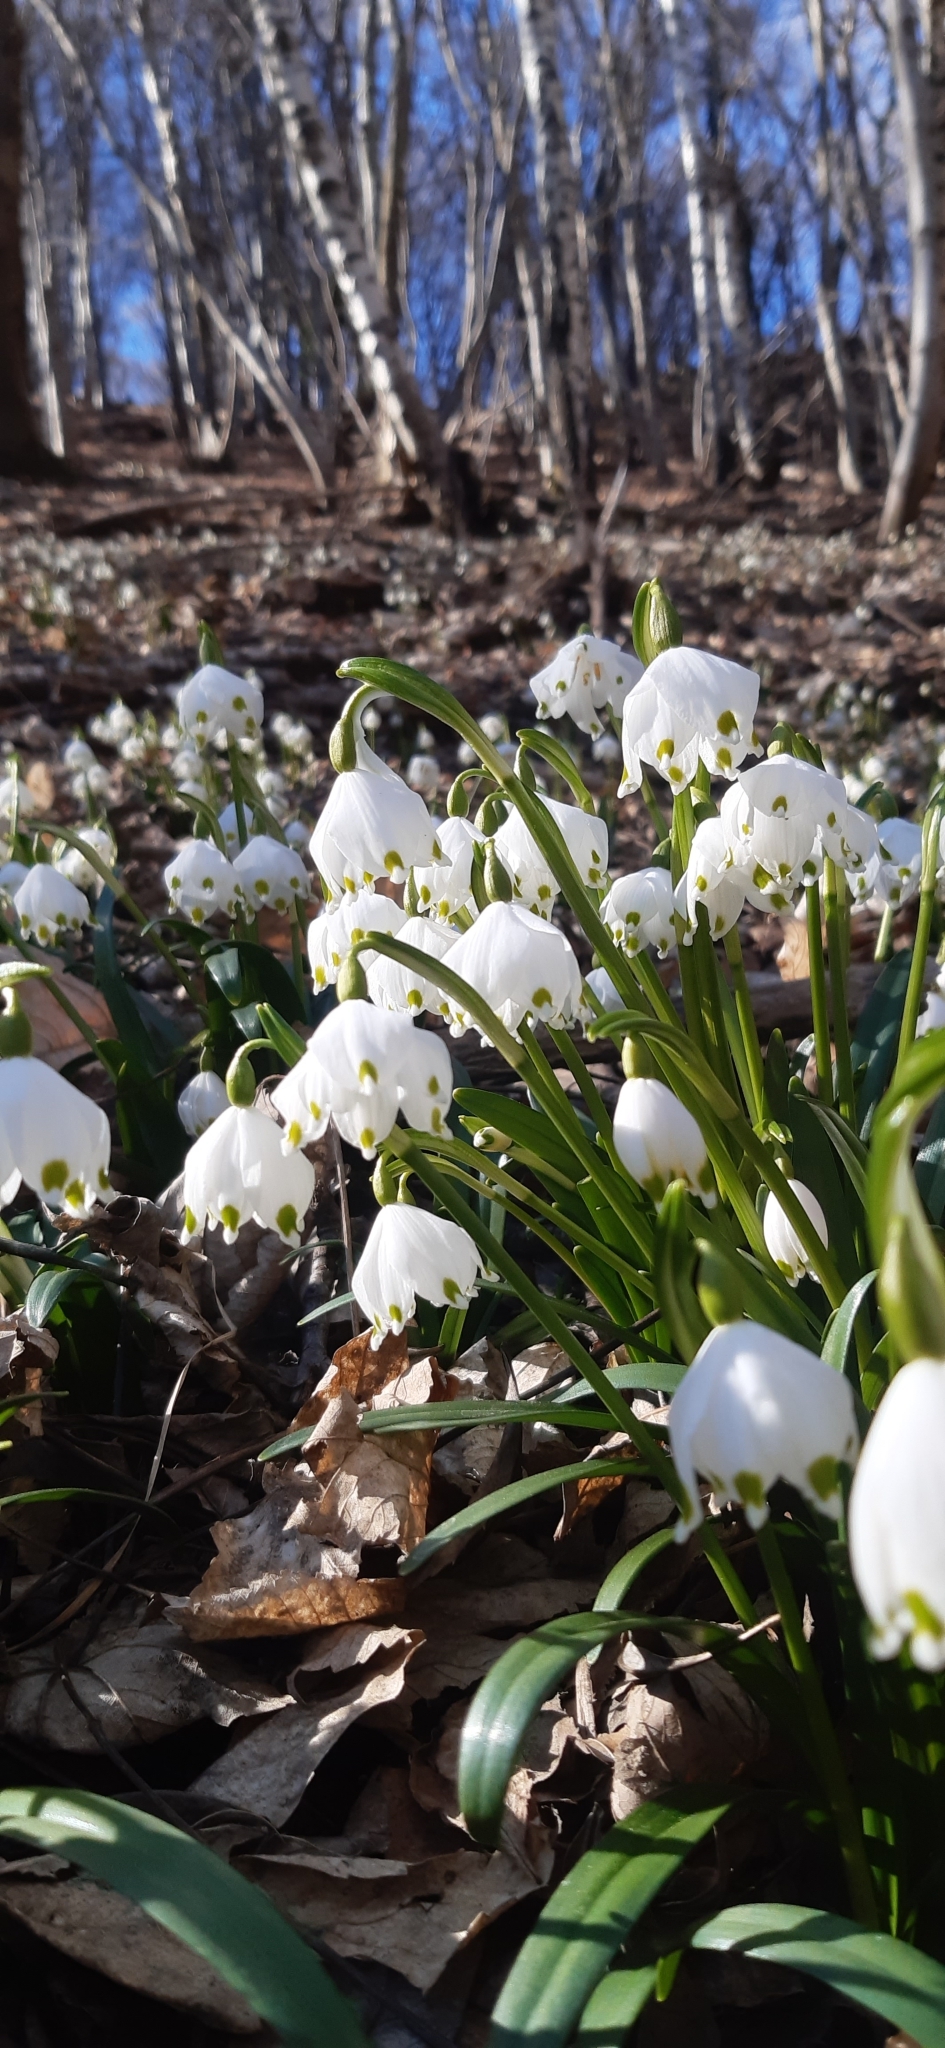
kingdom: Plantae
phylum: Tracheophyta
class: Liliopsida
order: Asparagales
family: Amaryllidaceae
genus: Leucojum
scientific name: Leucojum vernum
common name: Spring snowflake
